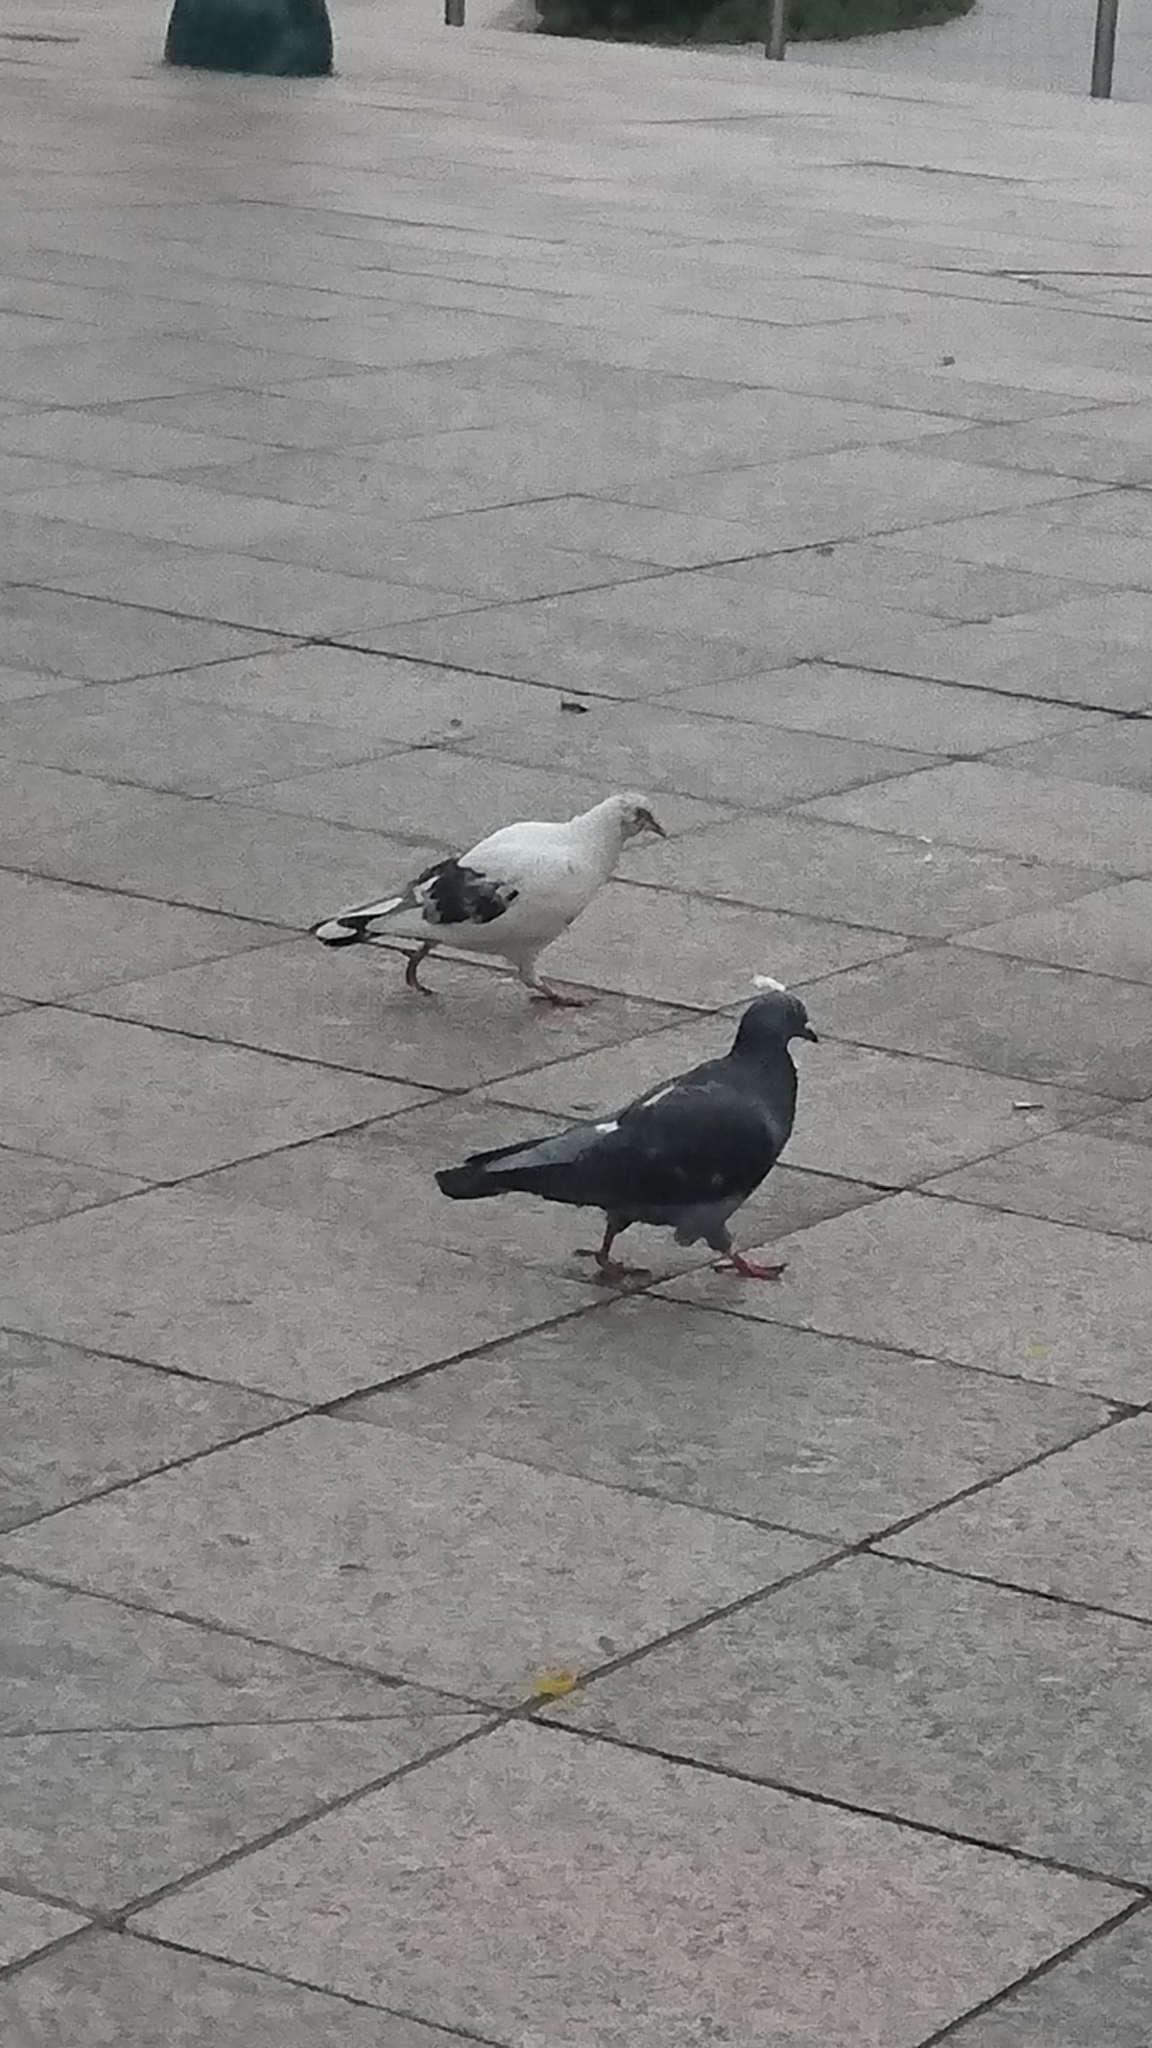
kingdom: Animalia
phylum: Chordata
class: Aves
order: Columbiformes
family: Columbidae
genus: Columba
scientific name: Columba livia
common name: Rock pigeon
